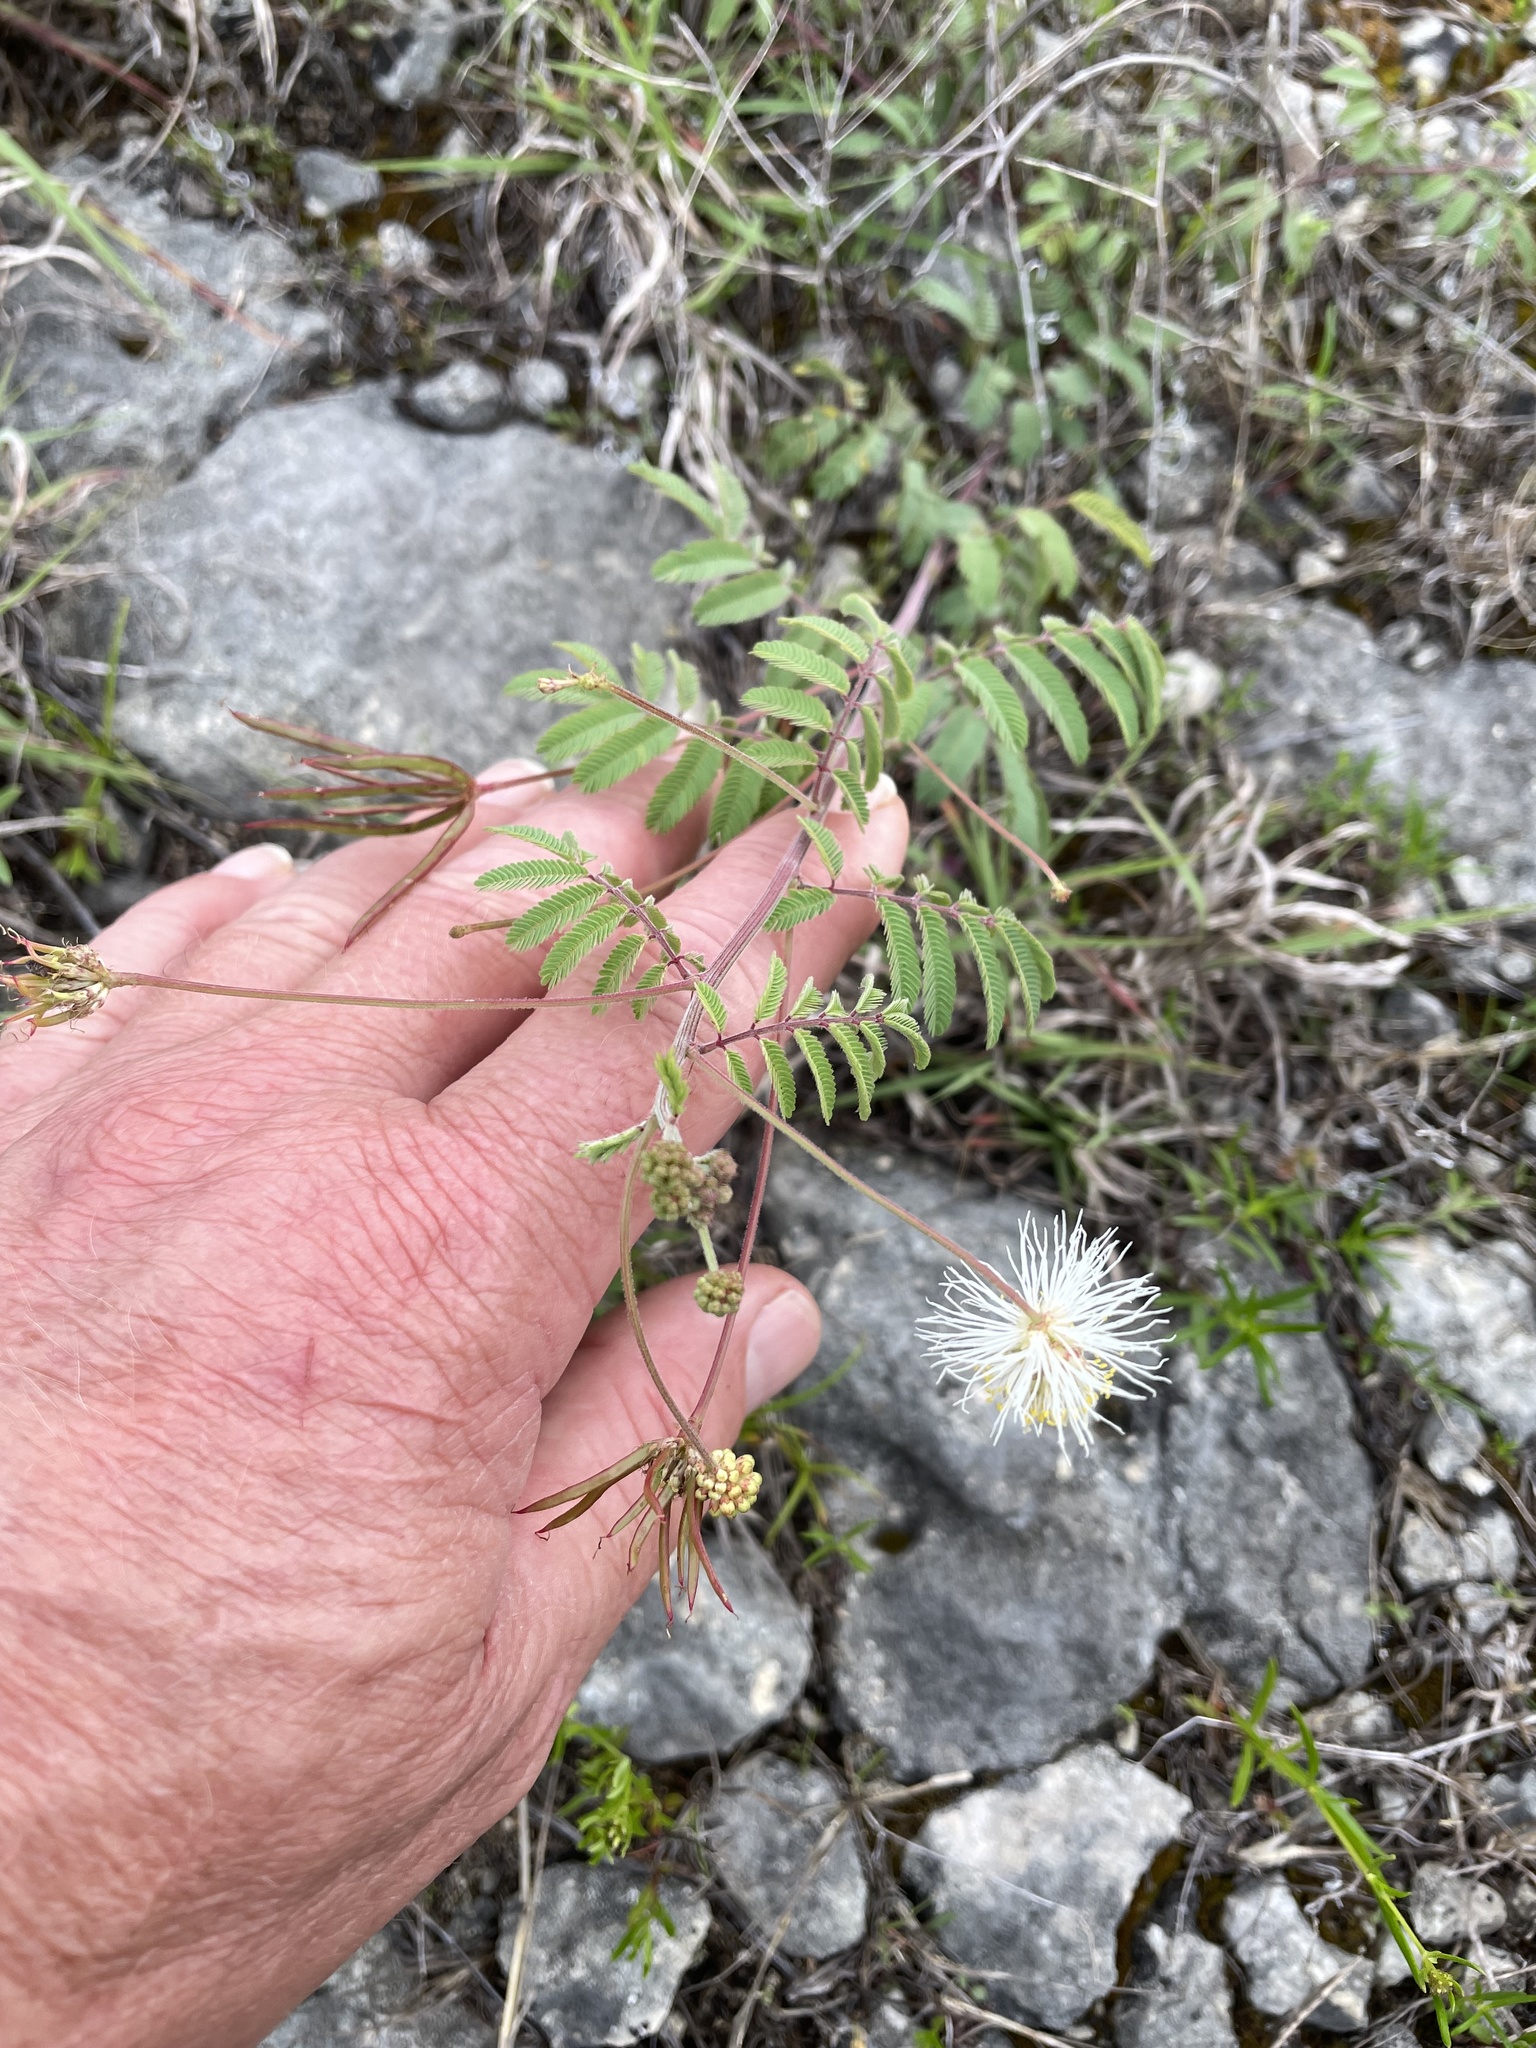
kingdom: Plantae
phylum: Tracheophyta
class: Magnoliopsida
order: Fabales
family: Fabaceae
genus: Desmanthus
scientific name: Desmanthus velutinus
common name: Velvet bundle-flower
